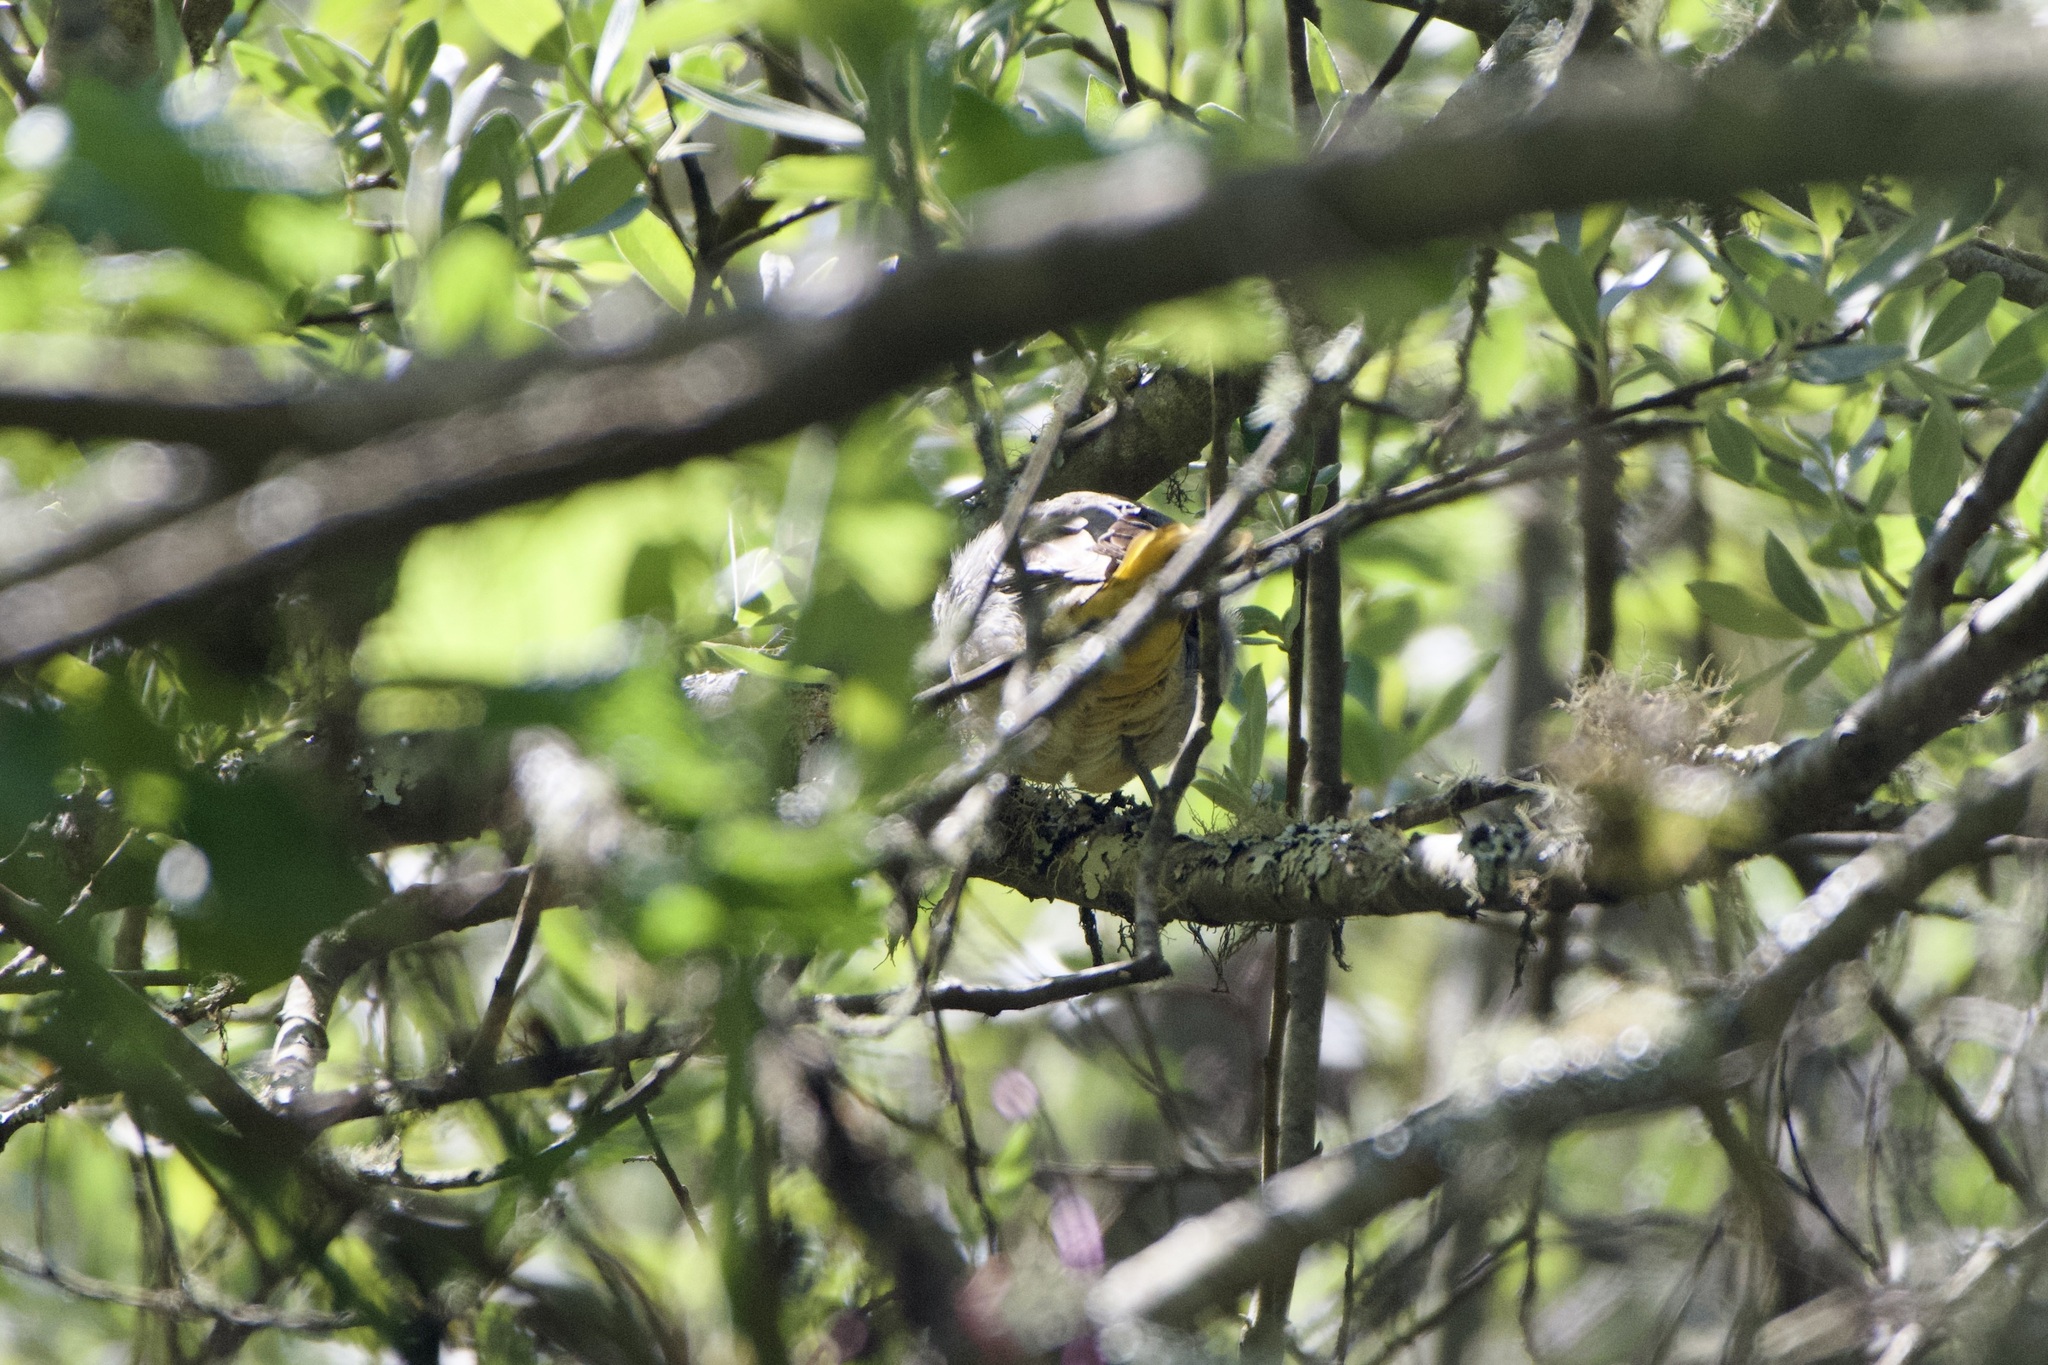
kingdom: Animalia
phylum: Chordata
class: Aves
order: Passeriformes
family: Icteridae
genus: Icterus
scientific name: Icterus galbula
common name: Baltimore oriole
